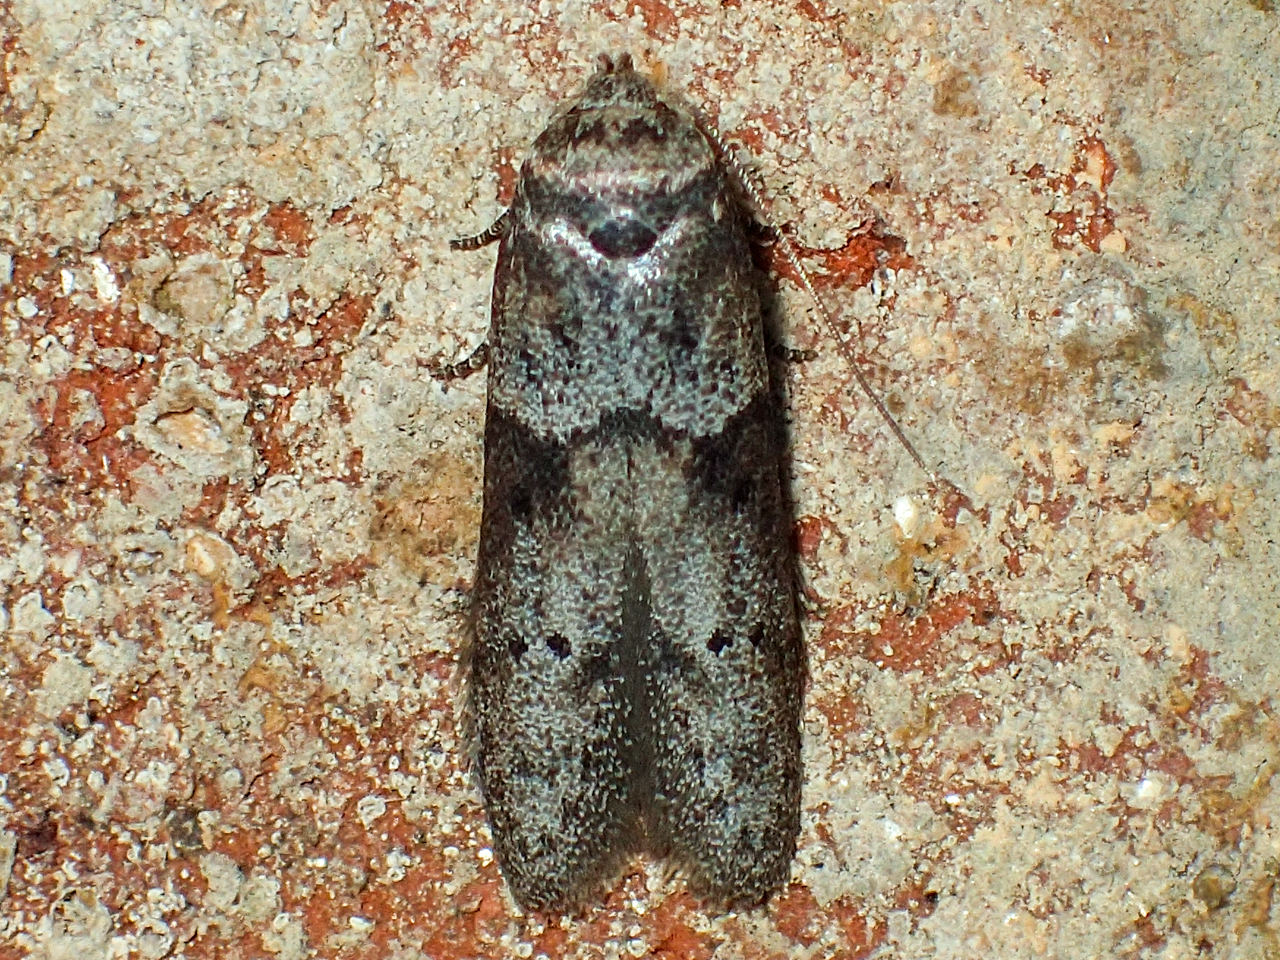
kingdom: Animalia
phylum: Arthropoda
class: Insecta
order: Lepidoptera
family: Blastobasidae
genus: Blastobasis
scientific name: Blastobasis glandulella
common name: Acorn moth
